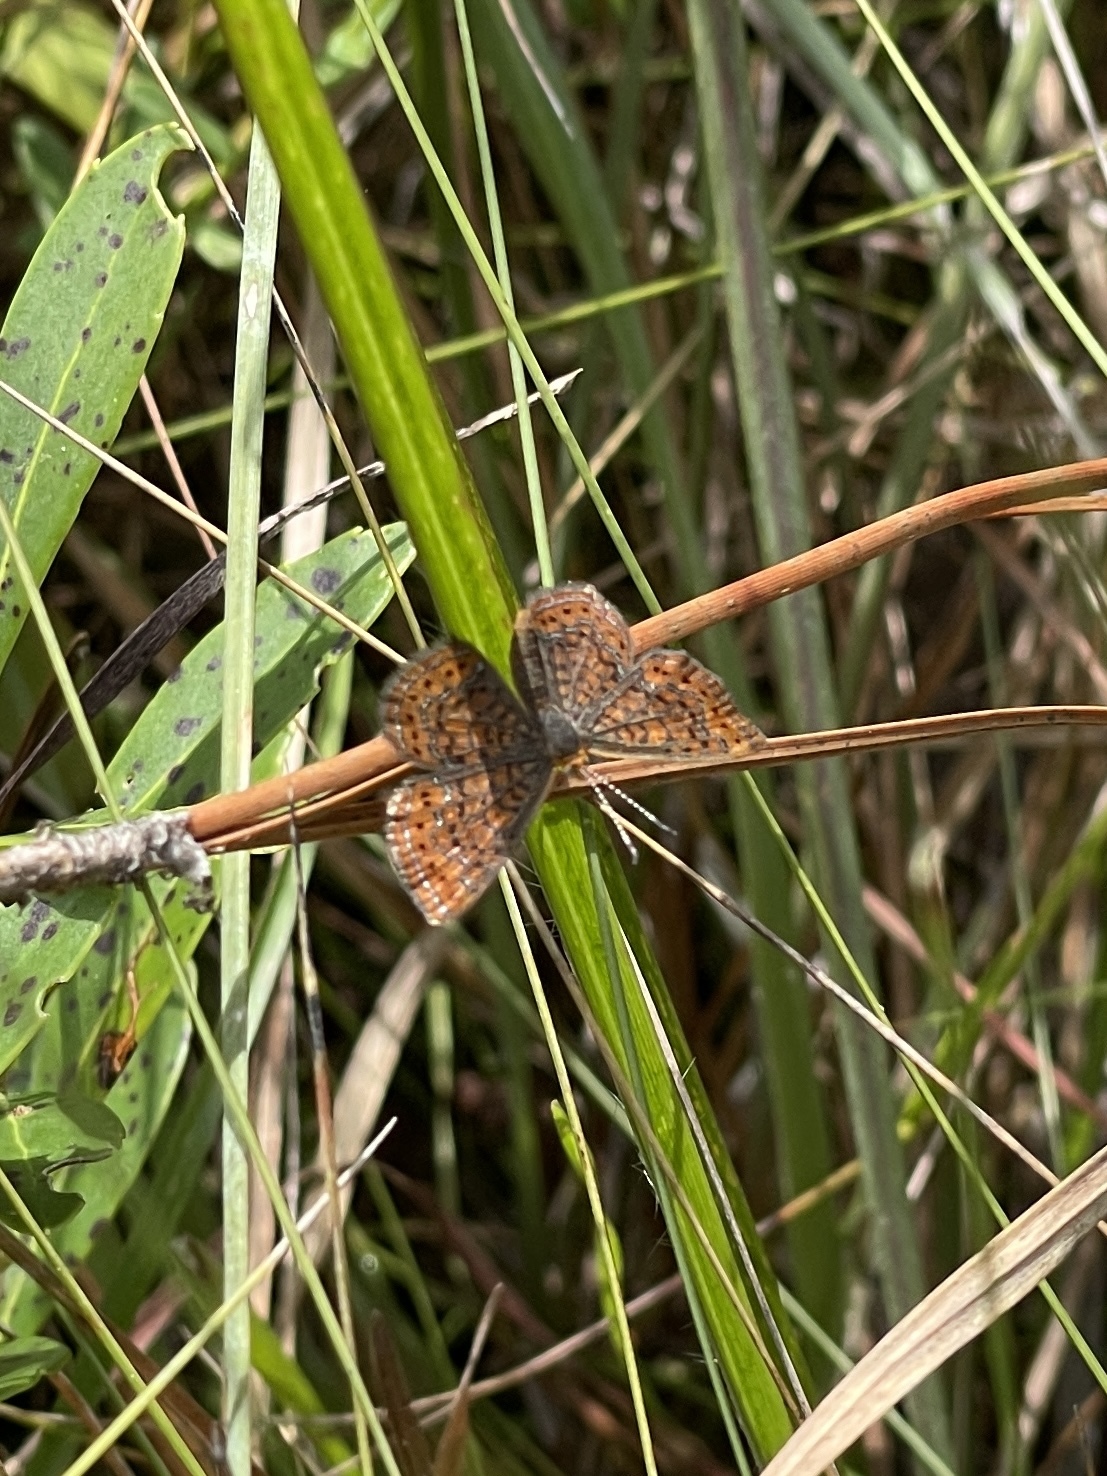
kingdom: Animalia
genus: Calephelis
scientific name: Calephelis virginiensis
